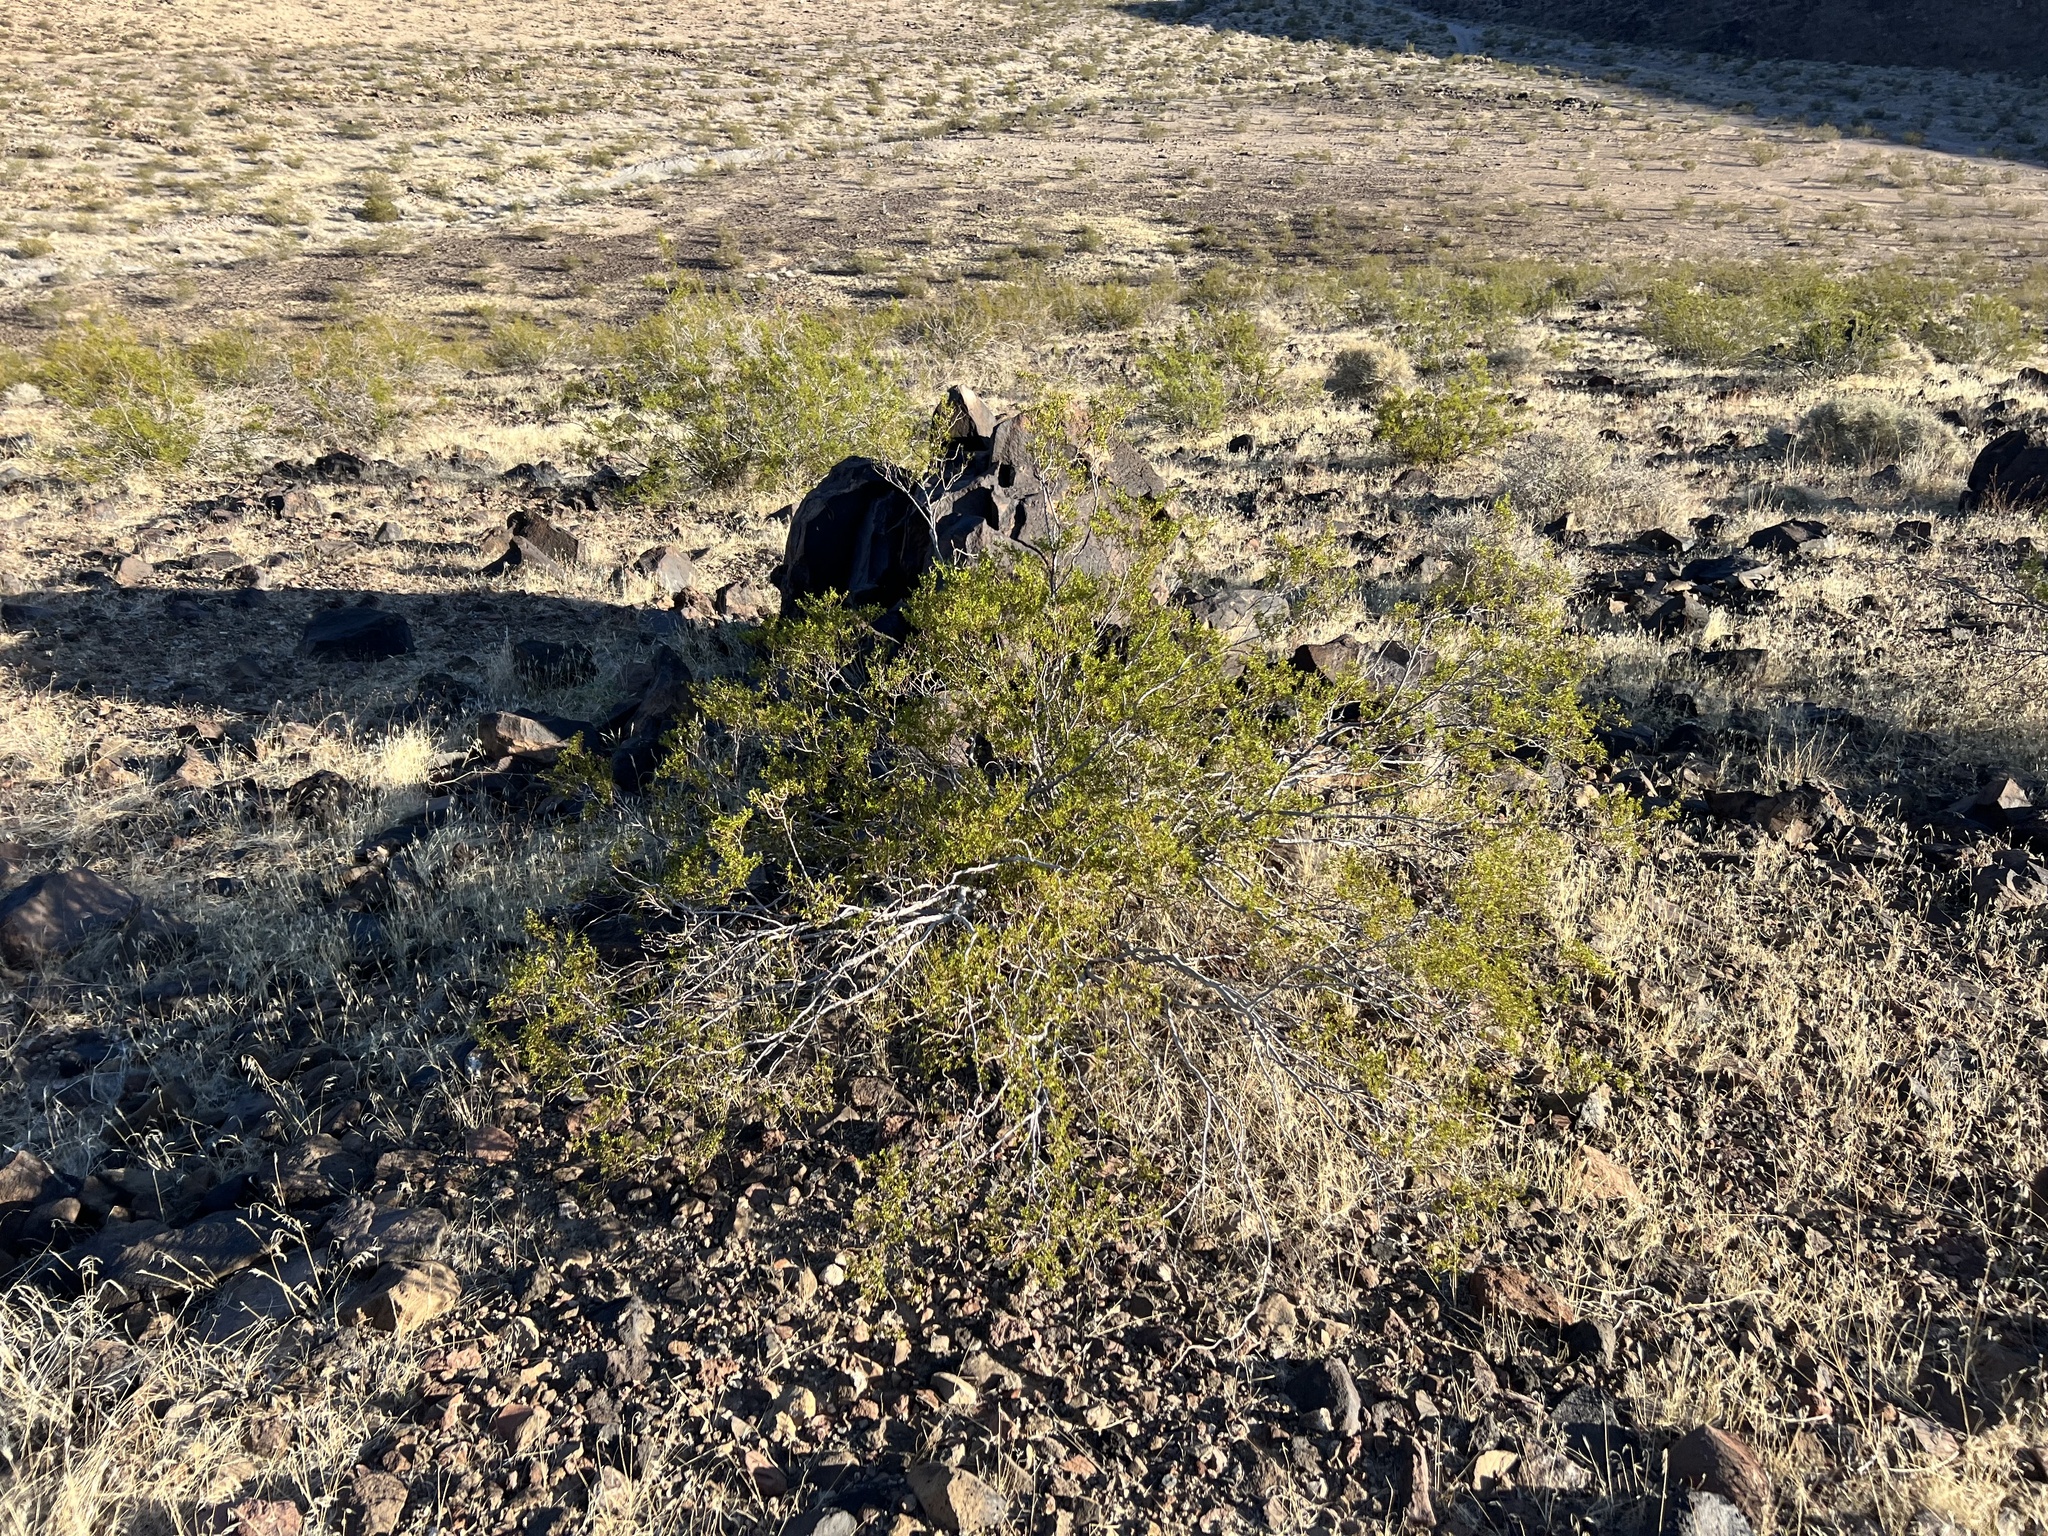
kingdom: Plantae
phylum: Tracheophyta
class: Magnoliopsida
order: Zygophyllales
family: Zygophyllaceae
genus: Larrea
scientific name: Larrea tridentata
